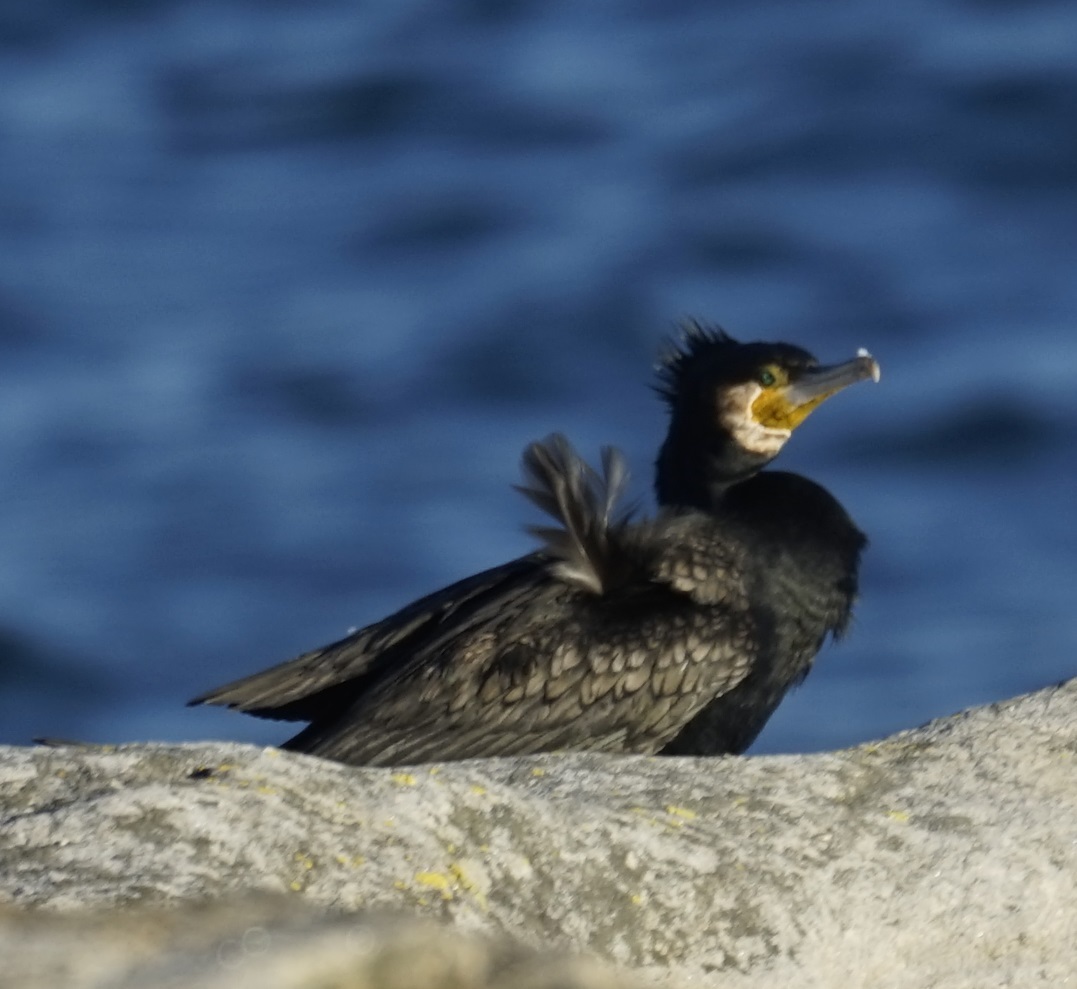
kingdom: Animalia
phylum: Chordata
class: Aves
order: Suliformes
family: Phalacrocoracidae
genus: Phalacrocorax
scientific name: Phalacrocorax carbo
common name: Great cormorant
